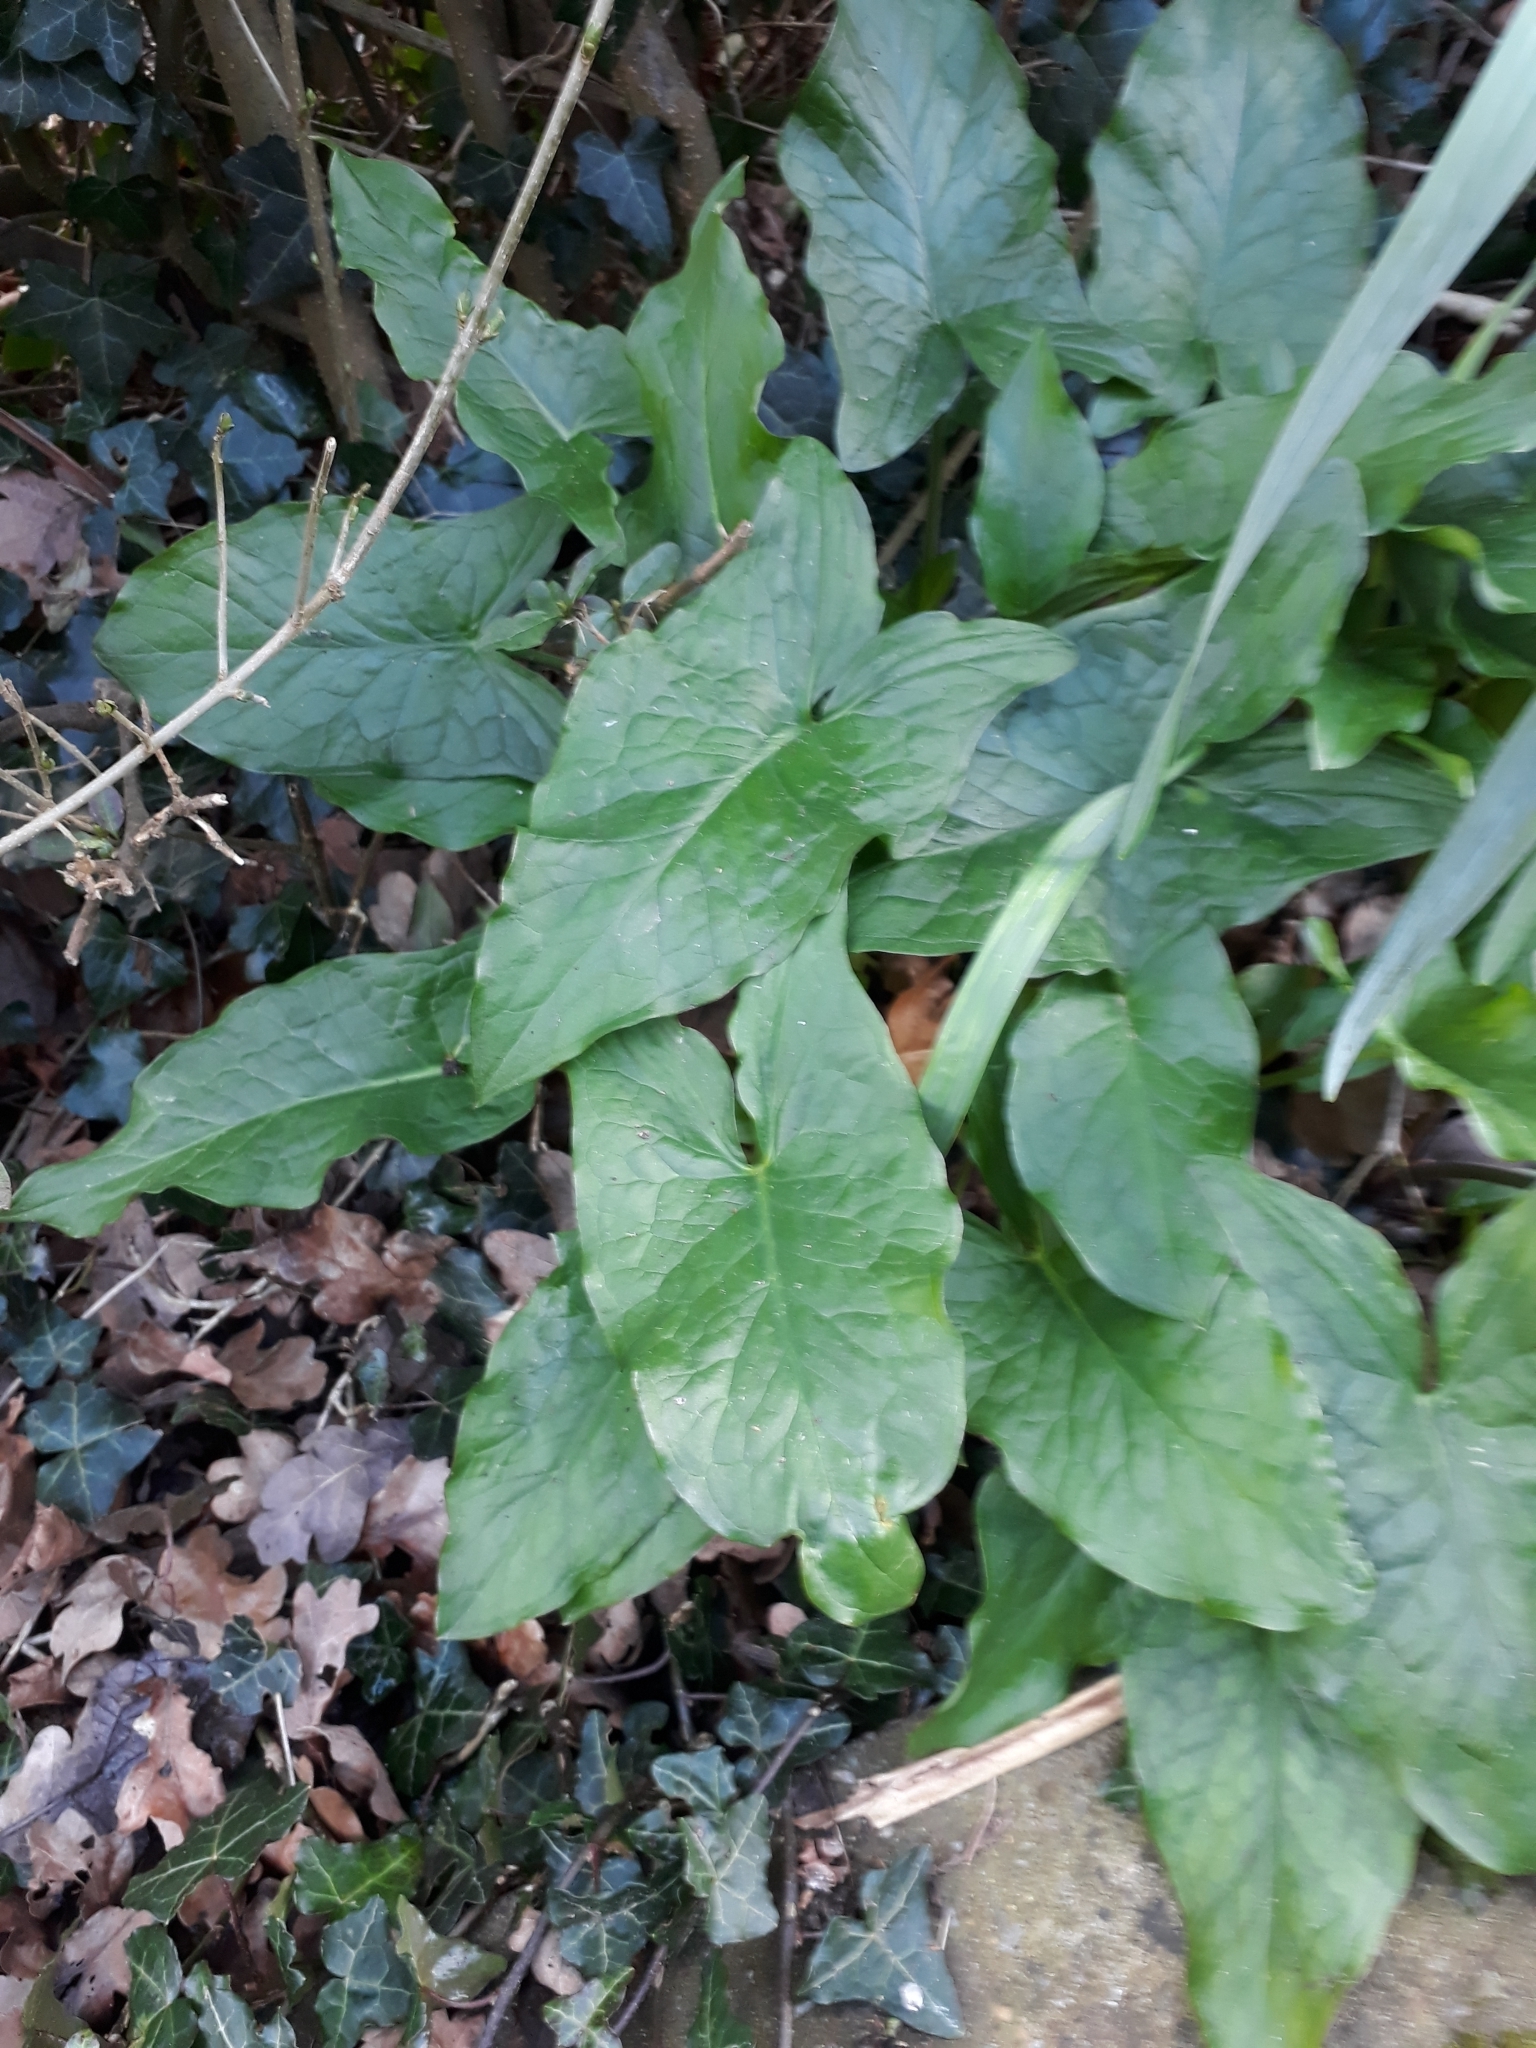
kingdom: Plantae
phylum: Tracheophyta
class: Liliopsida
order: Alismatales
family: Araceae
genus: Arum
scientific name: Arum maculatum
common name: Lords-and-ladies
